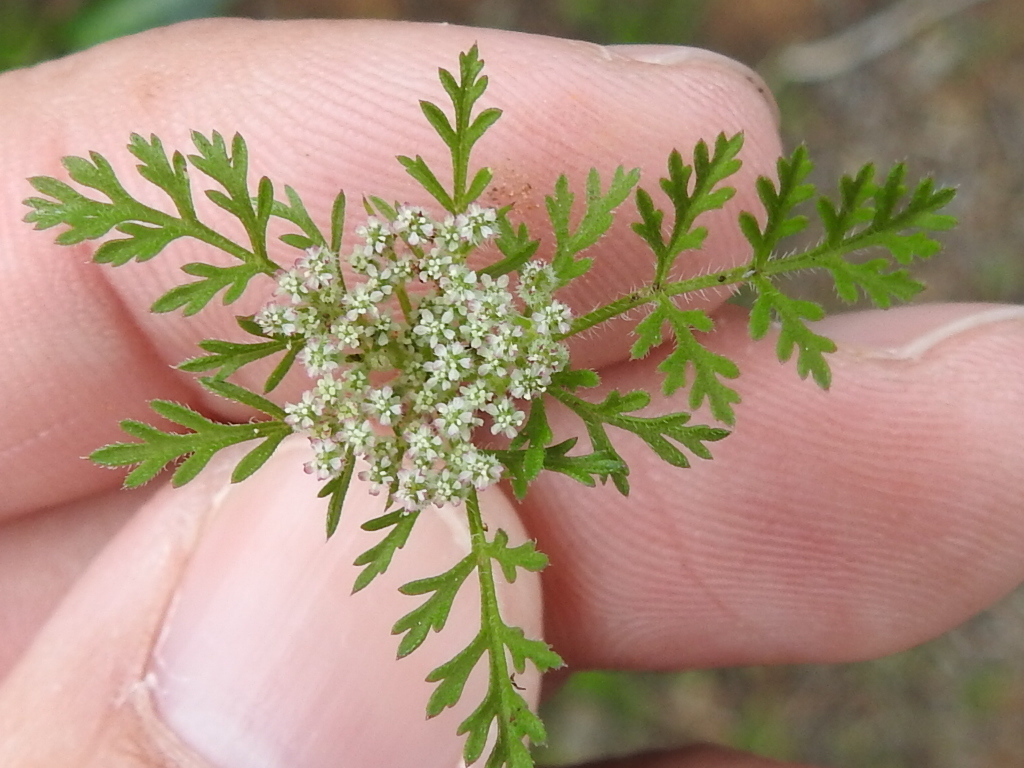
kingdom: Plantae
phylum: Tracheophyta
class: Magnoliopsida
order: Apiales
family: Apiaceae
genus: Daucus
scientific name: Daucus pusillus
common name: Southwest wild carrot
